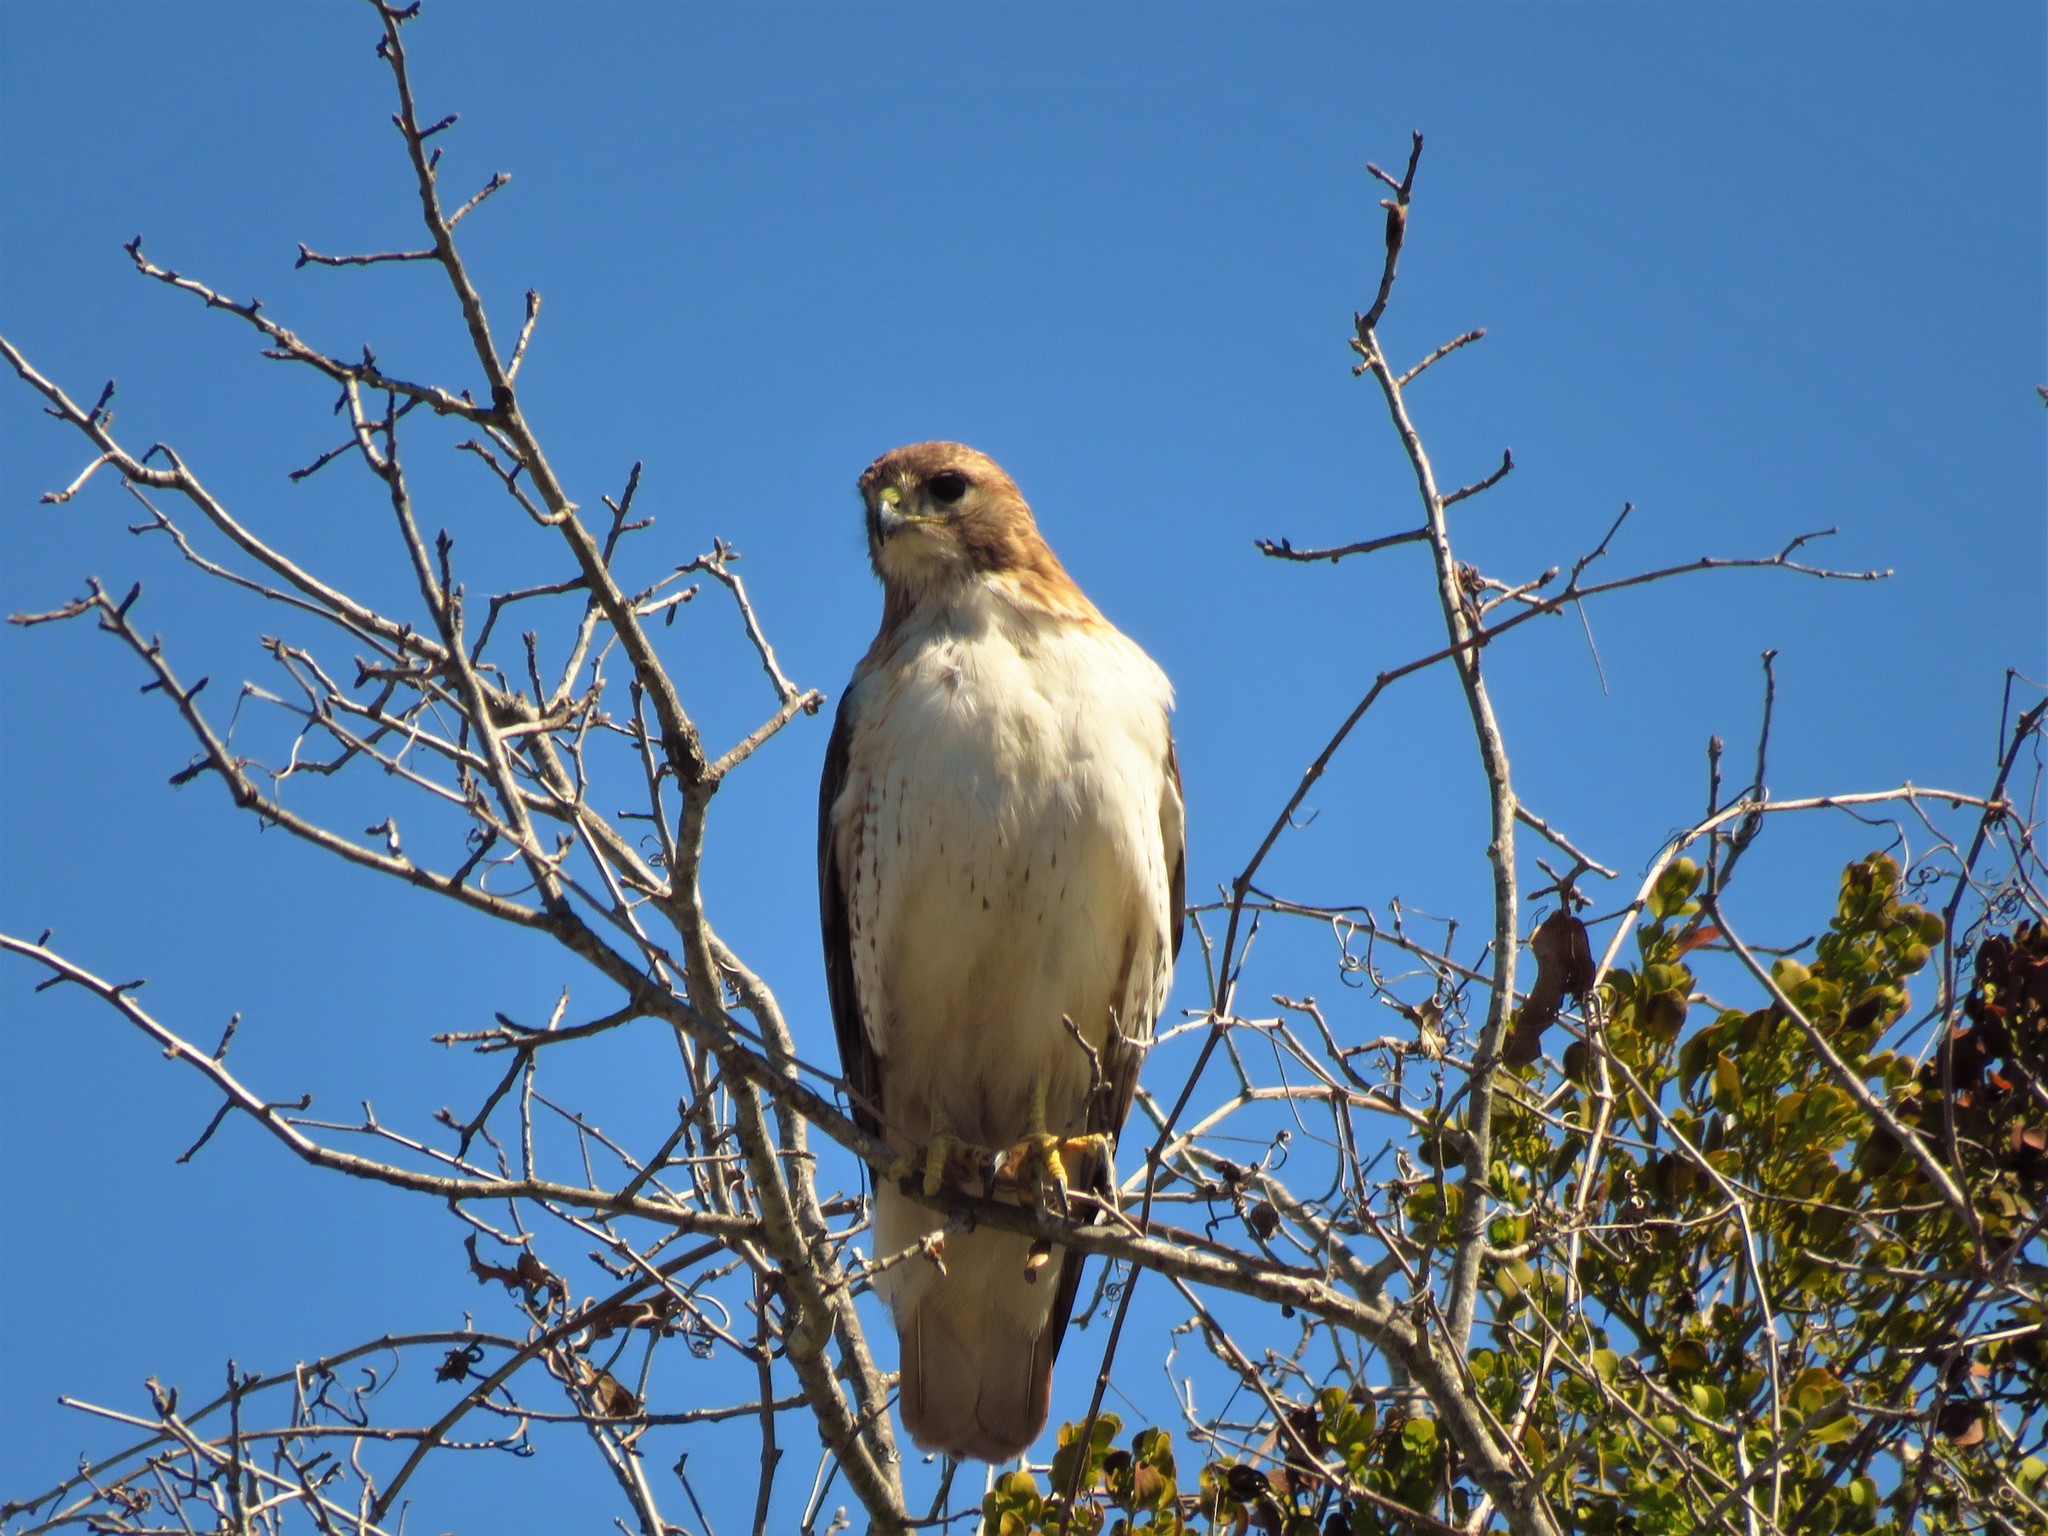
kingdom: Animalia
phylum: Chordata
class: Aves
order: Accipitriformes
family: Accipitridae
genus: Buteo
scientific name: Buteo jamaicensis
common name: Red-tailed hawk
